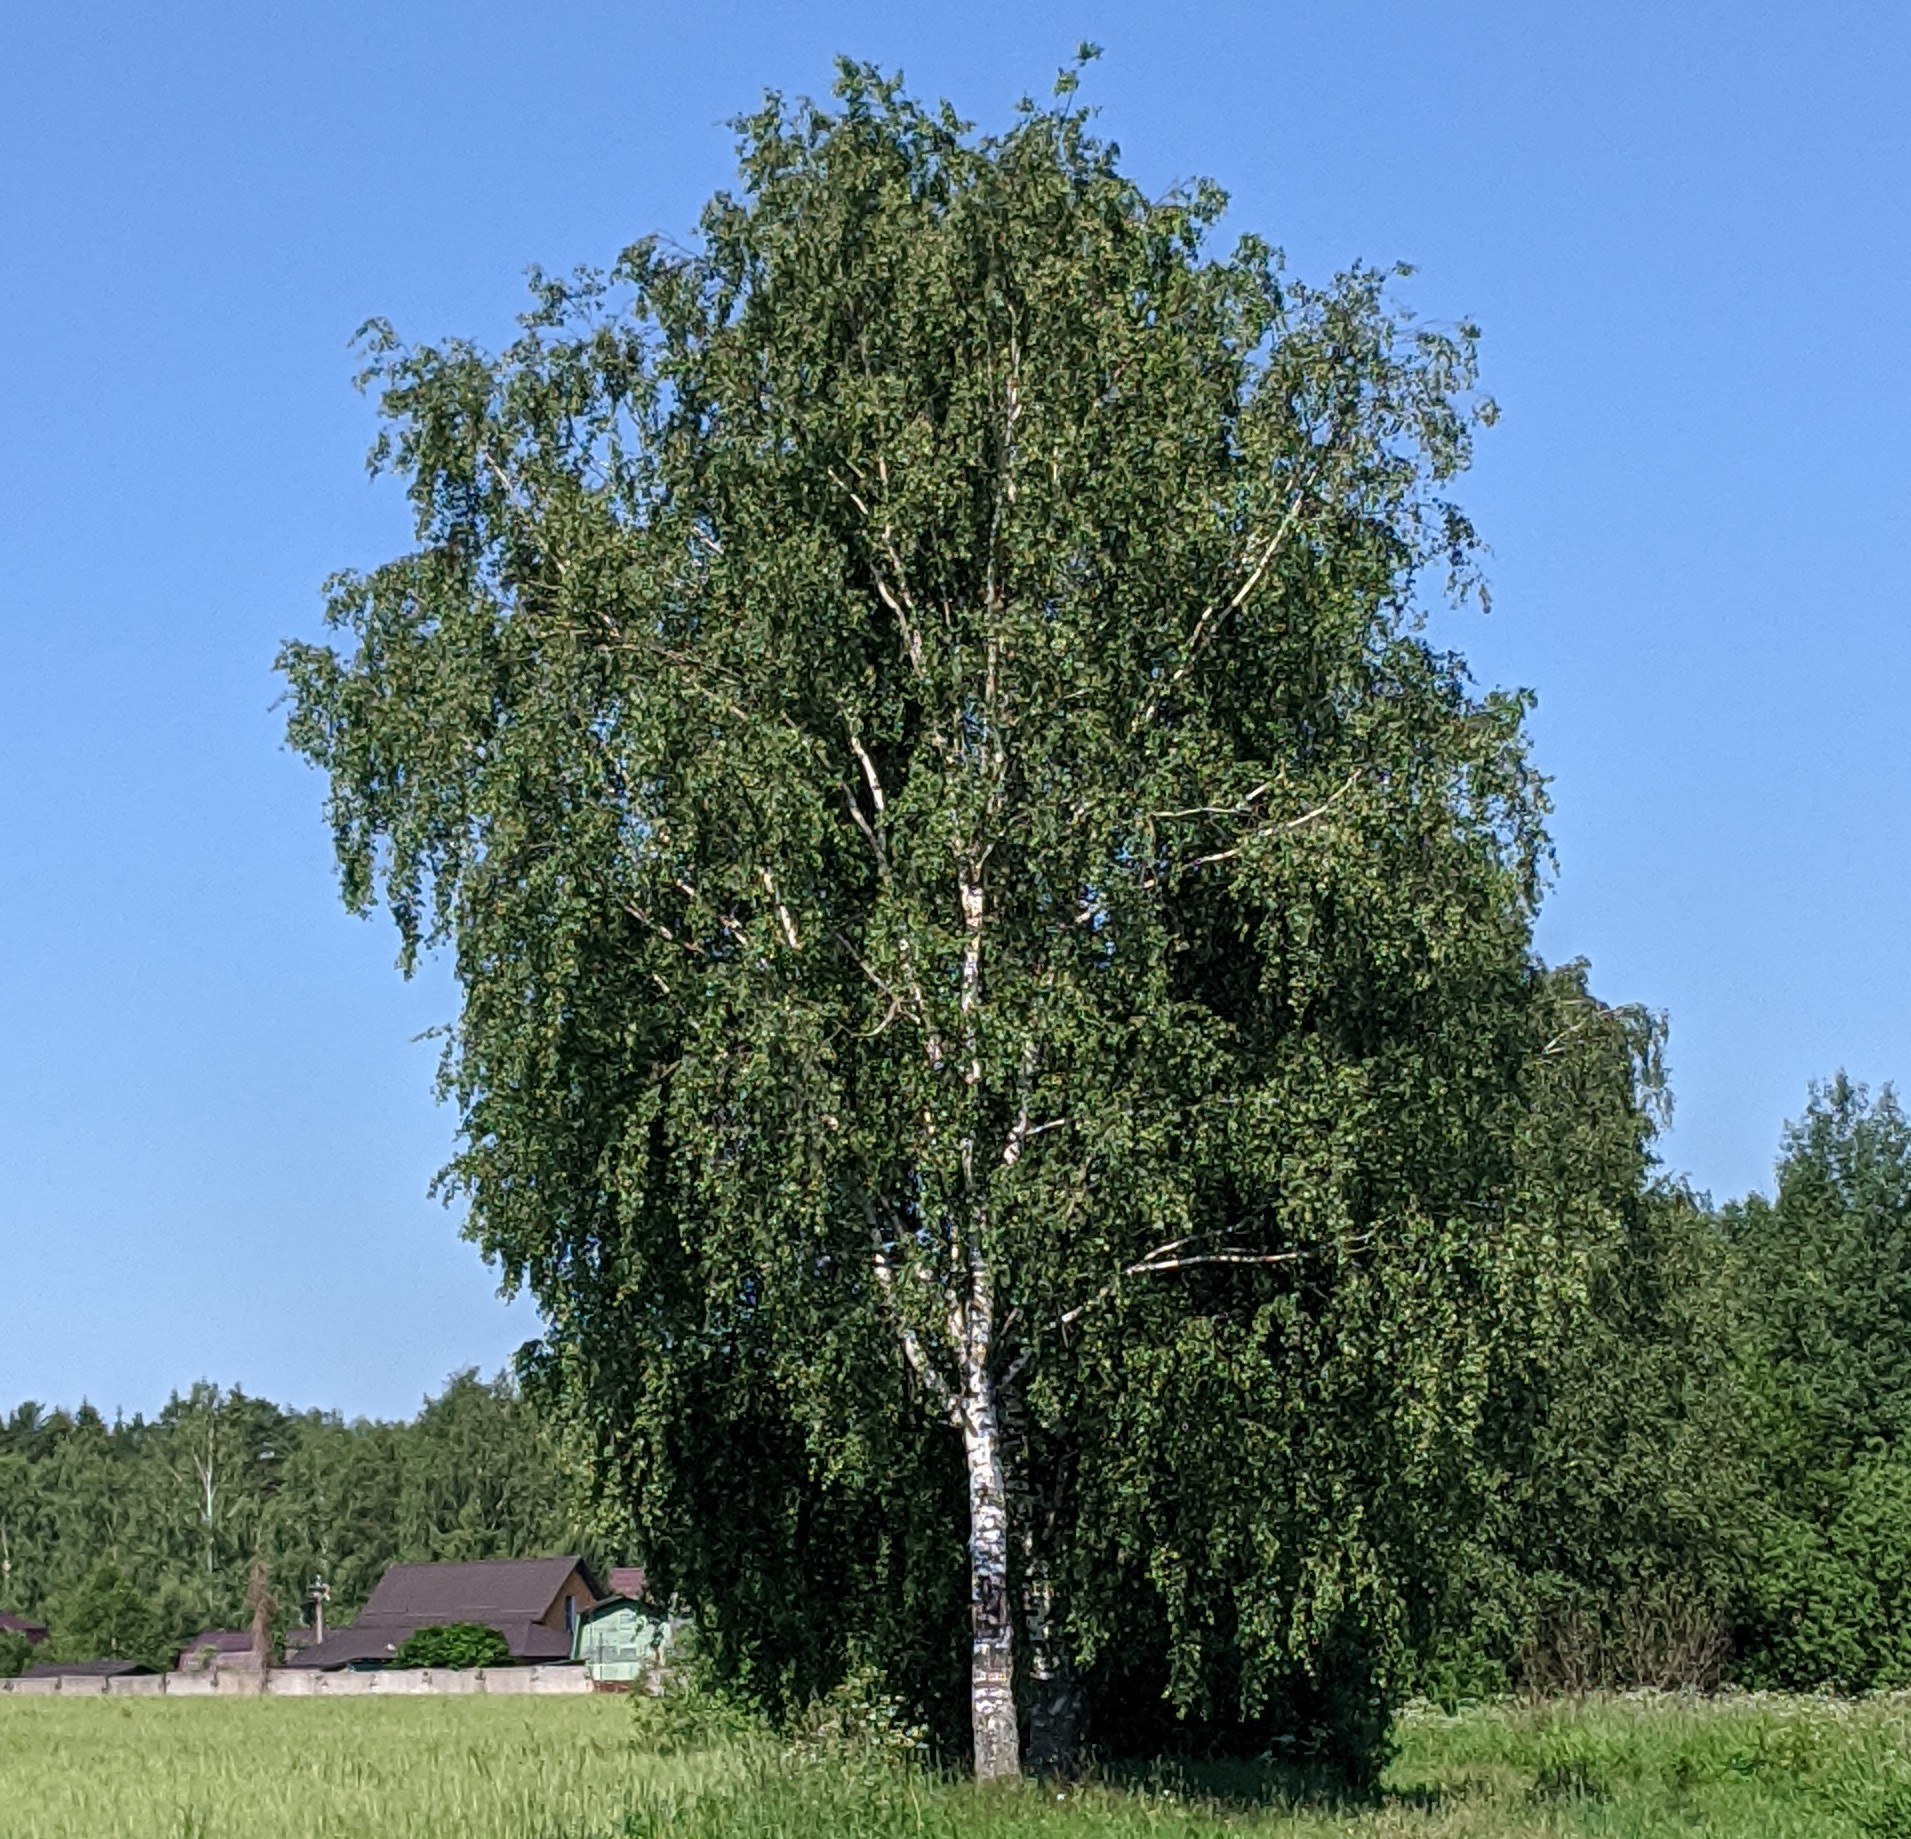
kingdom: Plantae
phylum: Tracheophyta
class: Magnoliopsida
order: Fagales
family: Betulaceae
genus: Betula
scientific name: Betula pendula
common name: Silver birch
